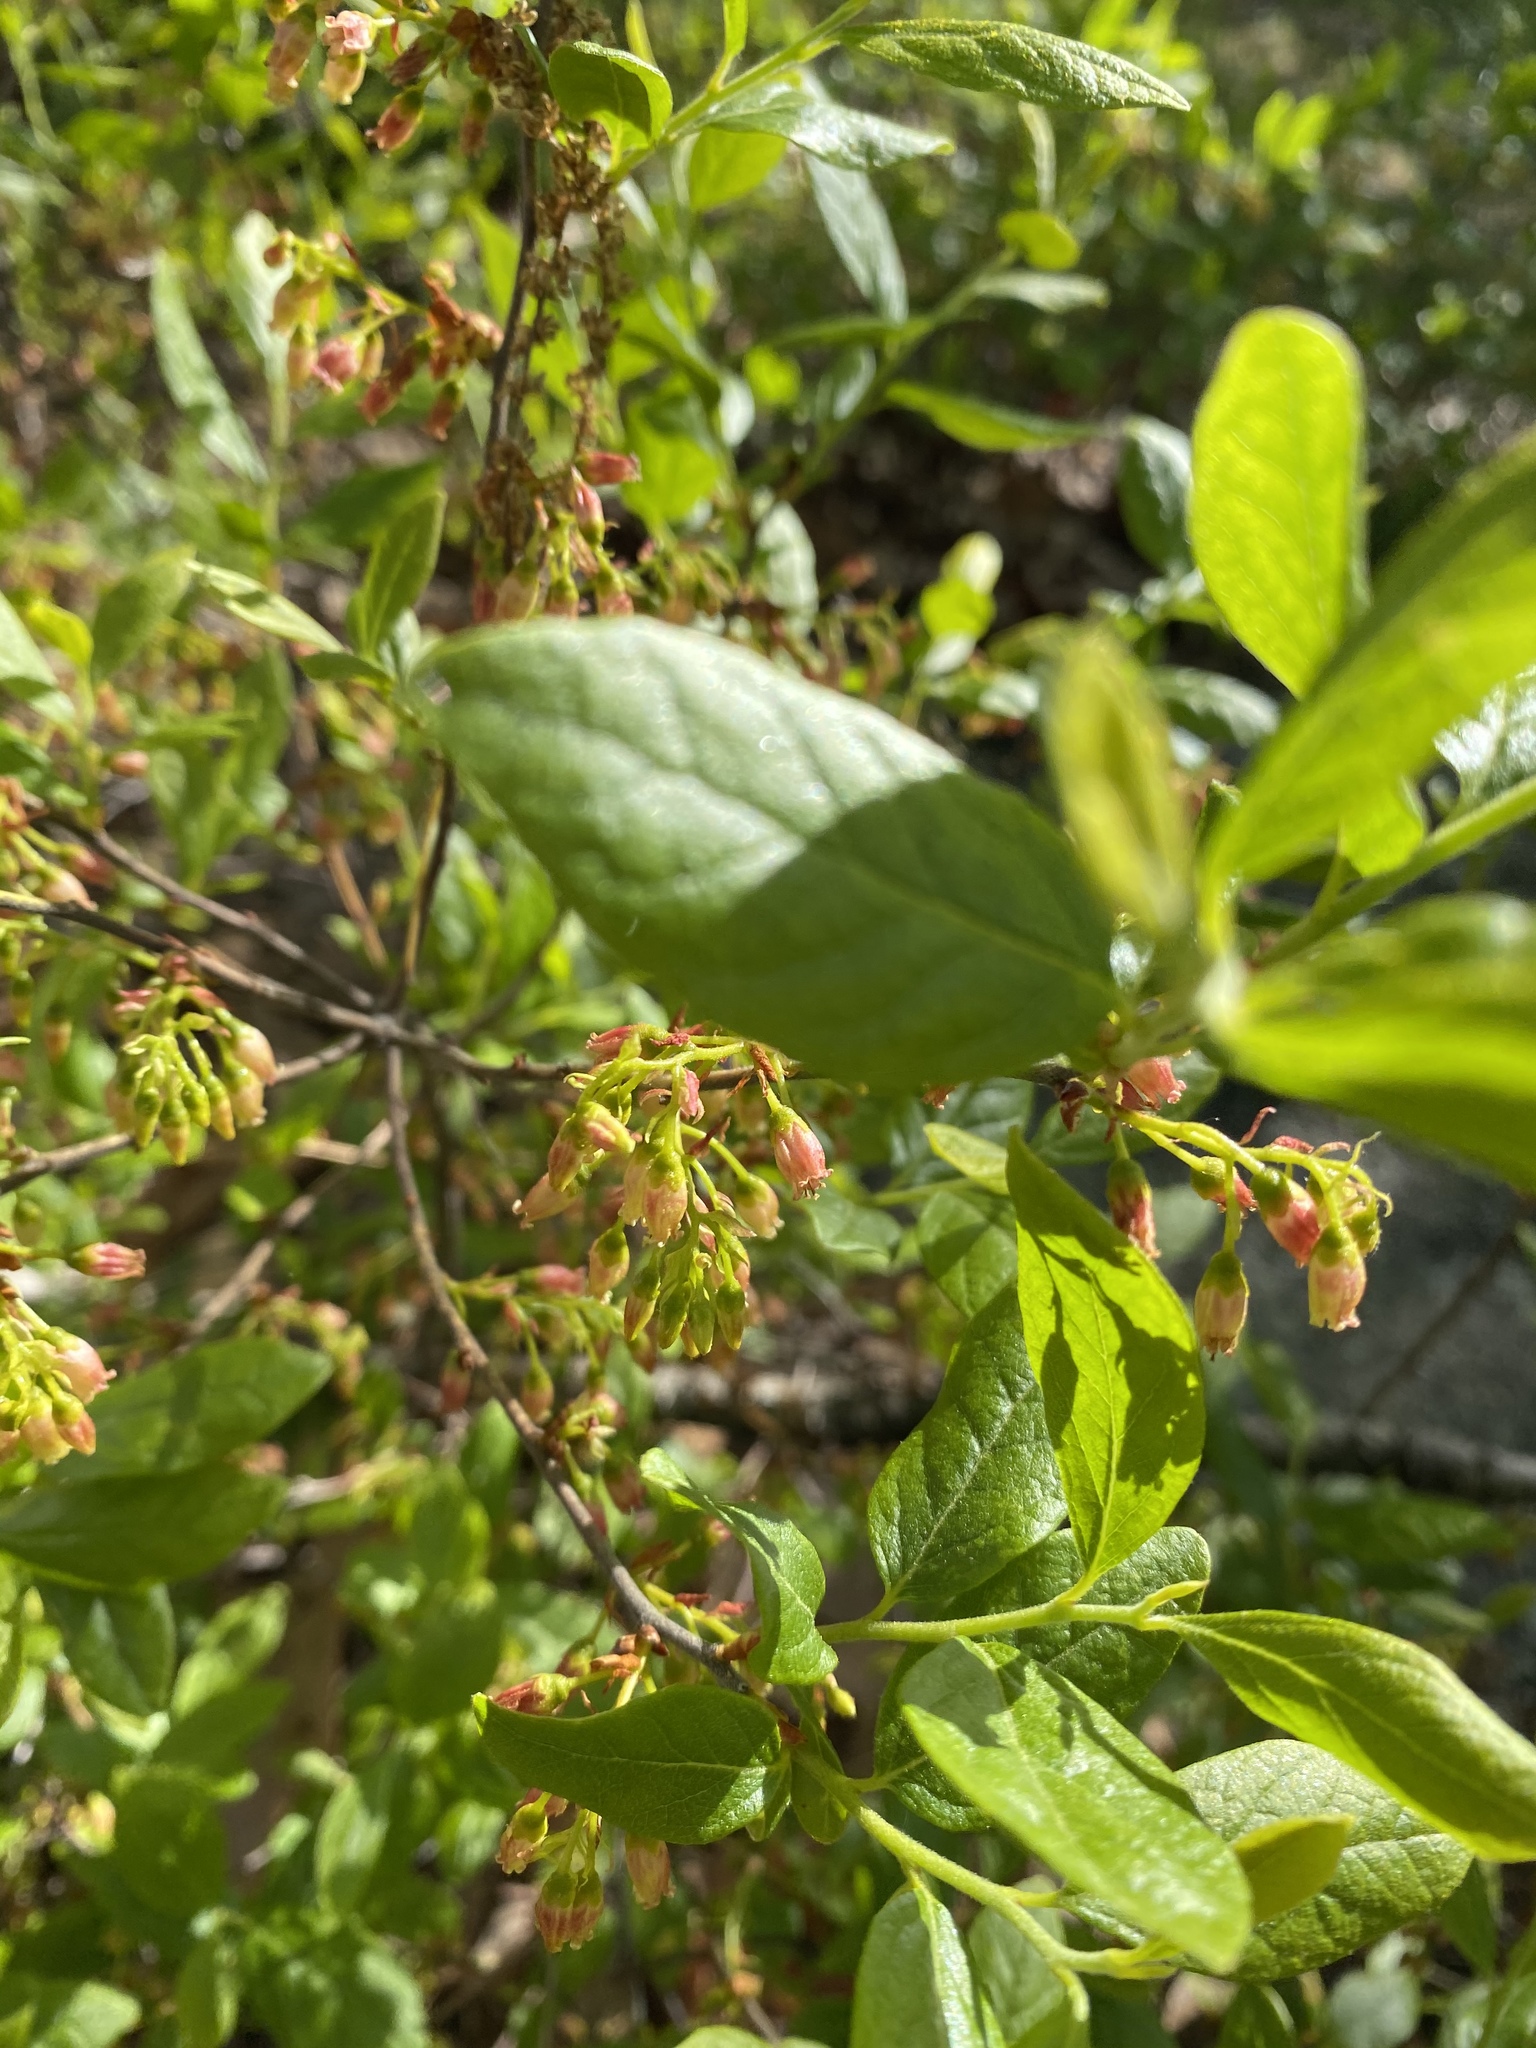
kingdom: Plantae
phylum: Tracheophyta
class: Magnoliopsida
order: Ericales
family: Ericaceae
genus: Gaylussacia
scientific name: Gaylussacia baccata
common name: Black huckleberry
